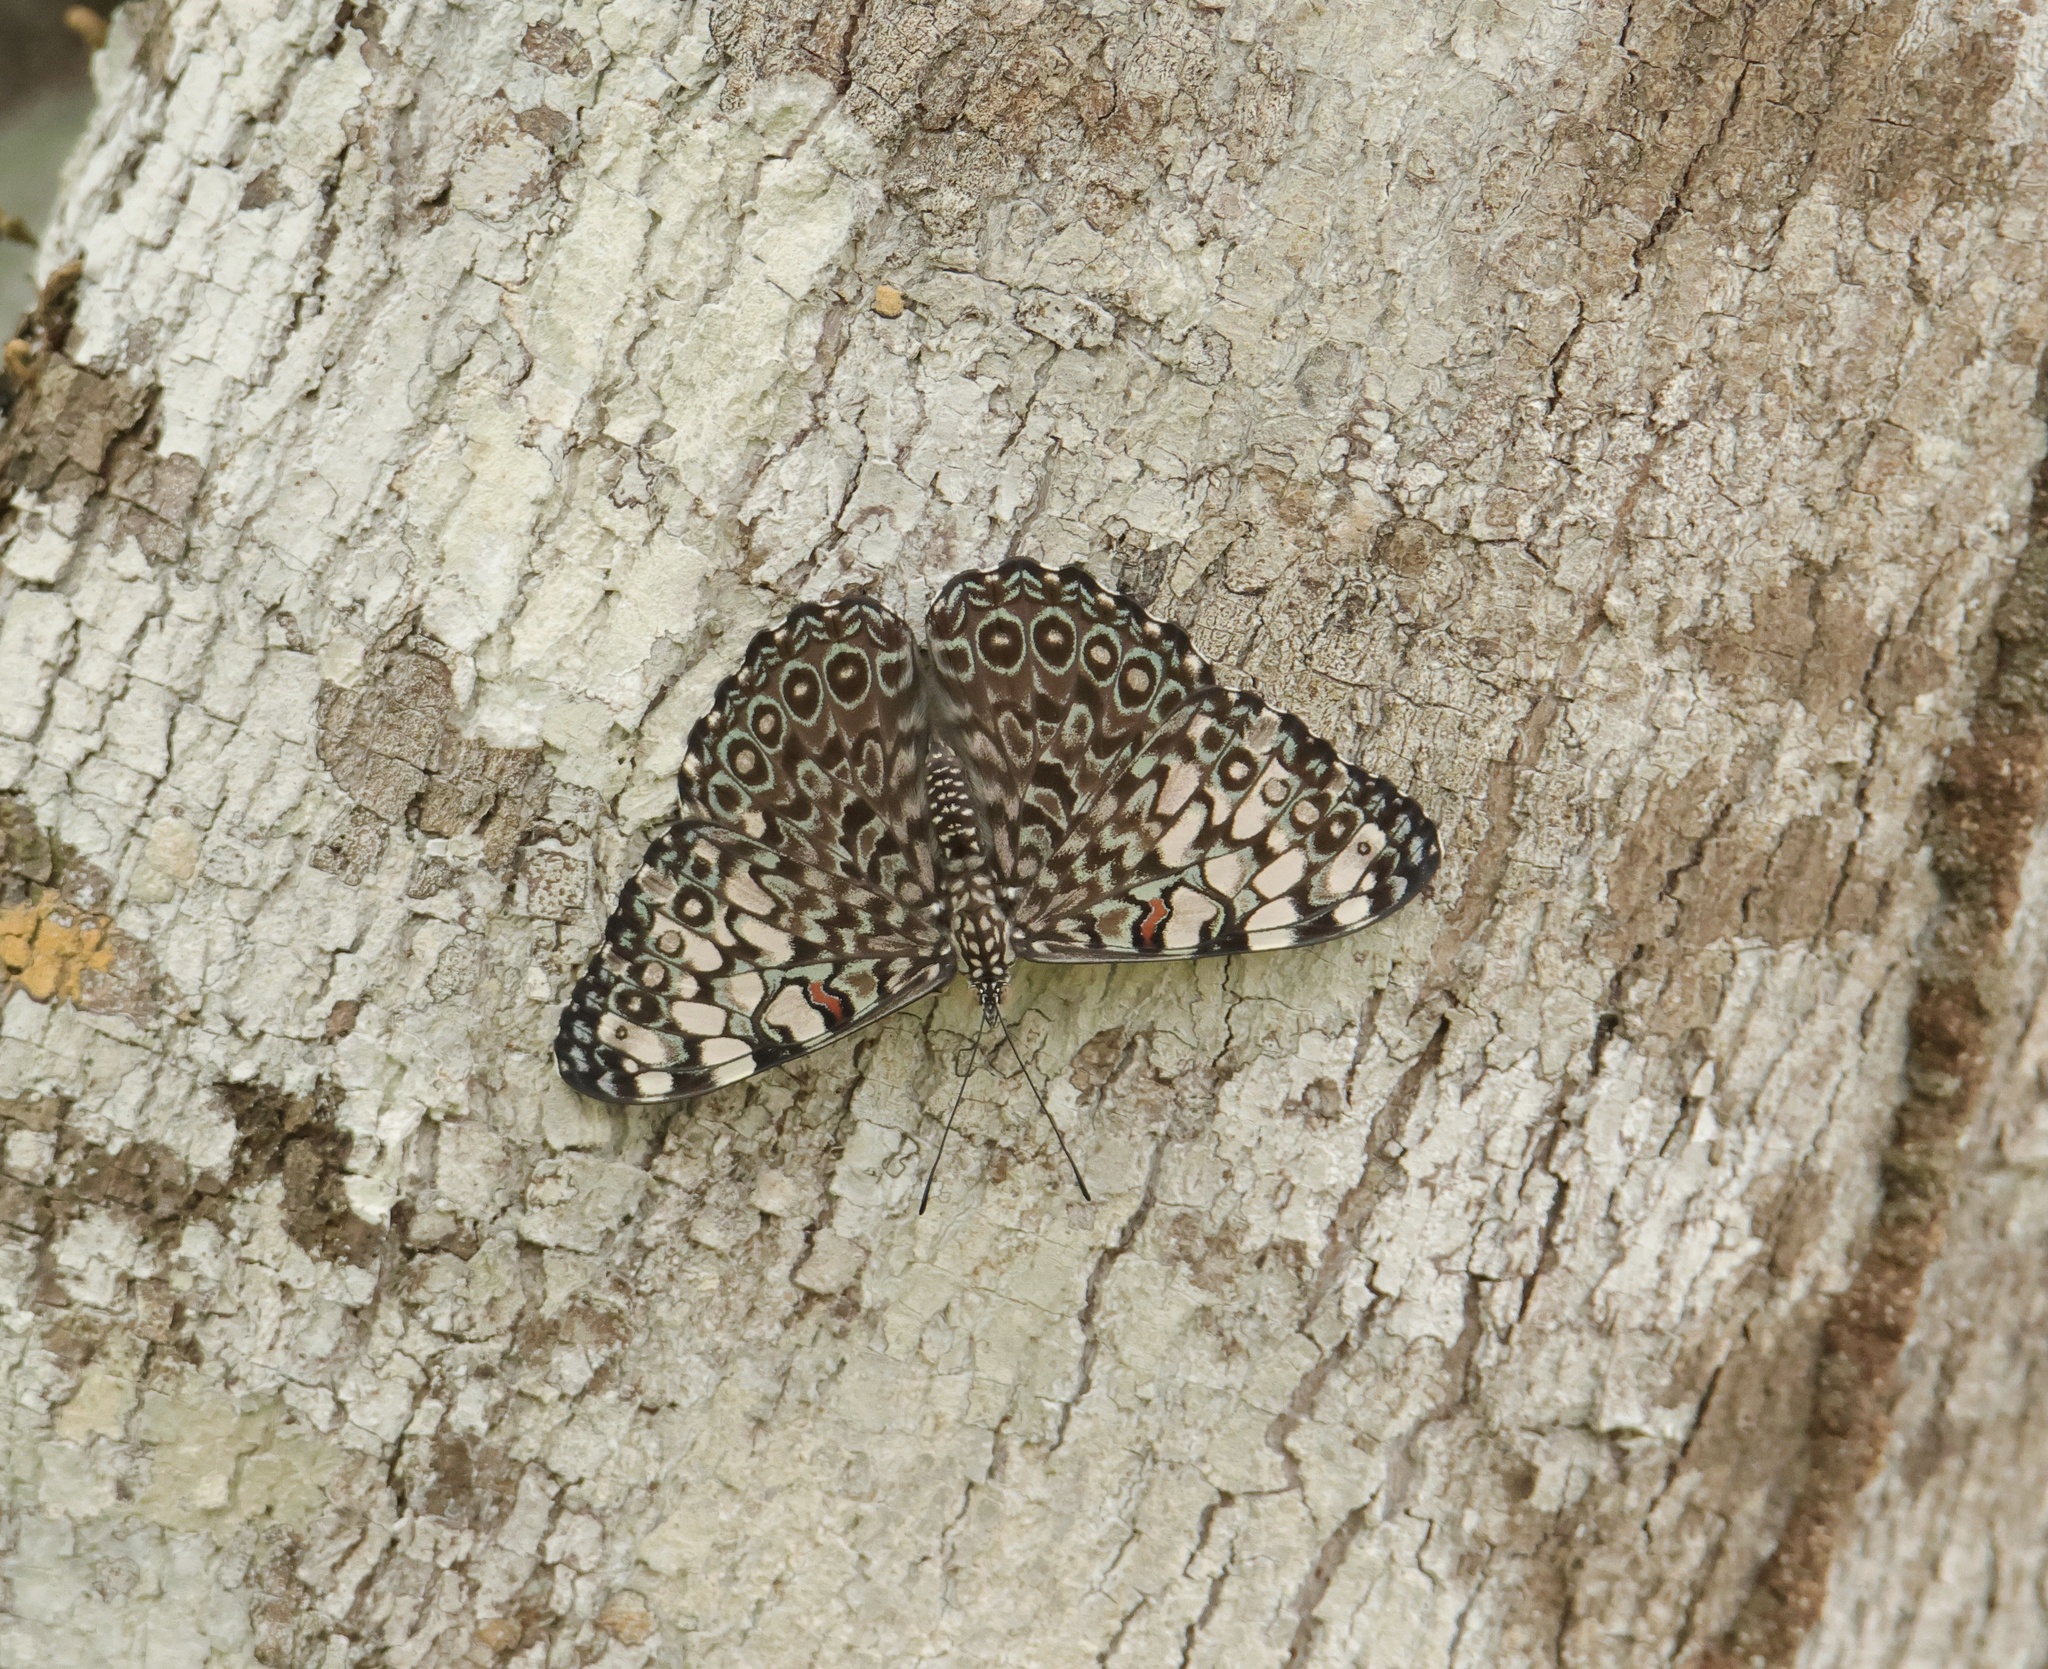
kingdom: Animalia
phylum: Arthropoda
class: Insecta
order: Lepidoptera
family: Nymphalidae
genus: Hamadryas
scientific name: Hamadryas feronia
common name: Variable cracker
